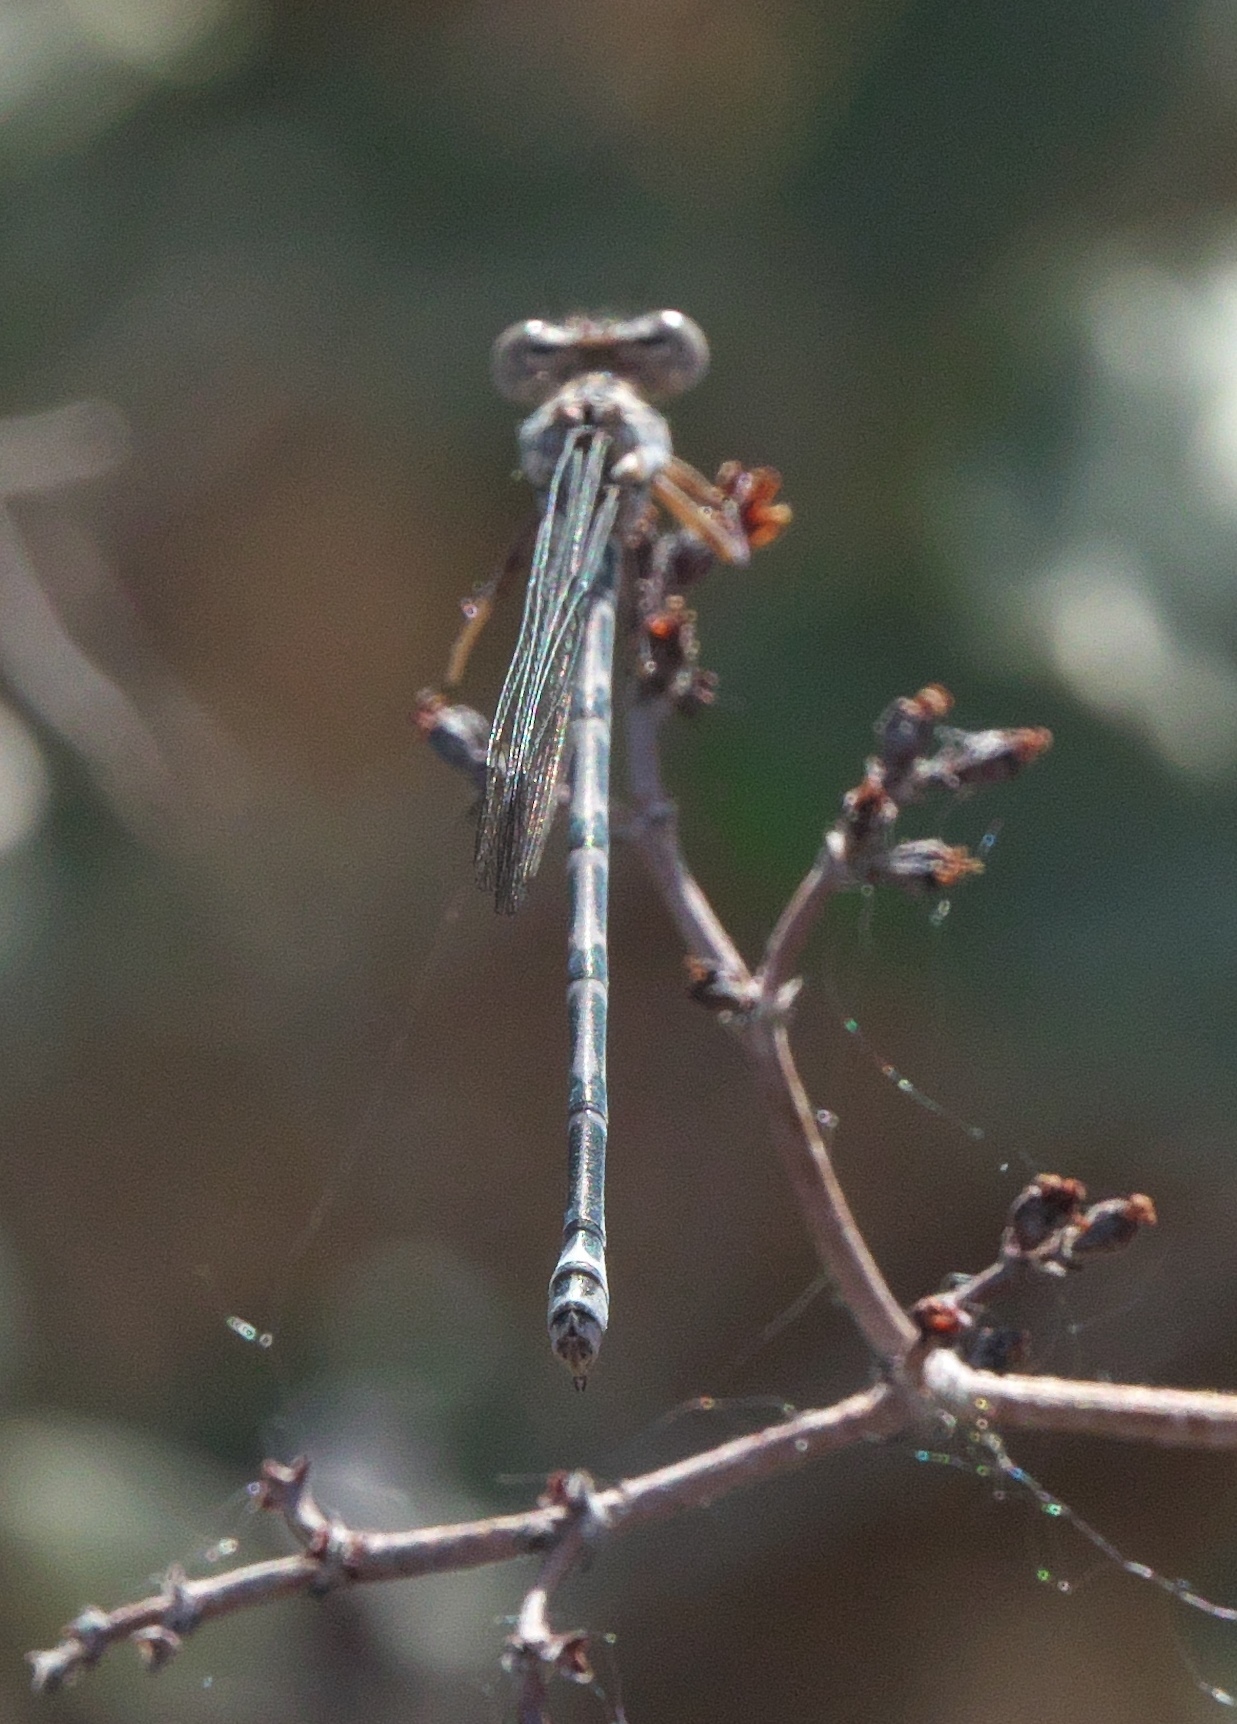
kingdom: Animalia
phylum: Arthropoda
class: Insecta
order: Odonata
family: Coenagrionidae
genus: Argia
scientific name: Argia agrioides
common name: California dancer
